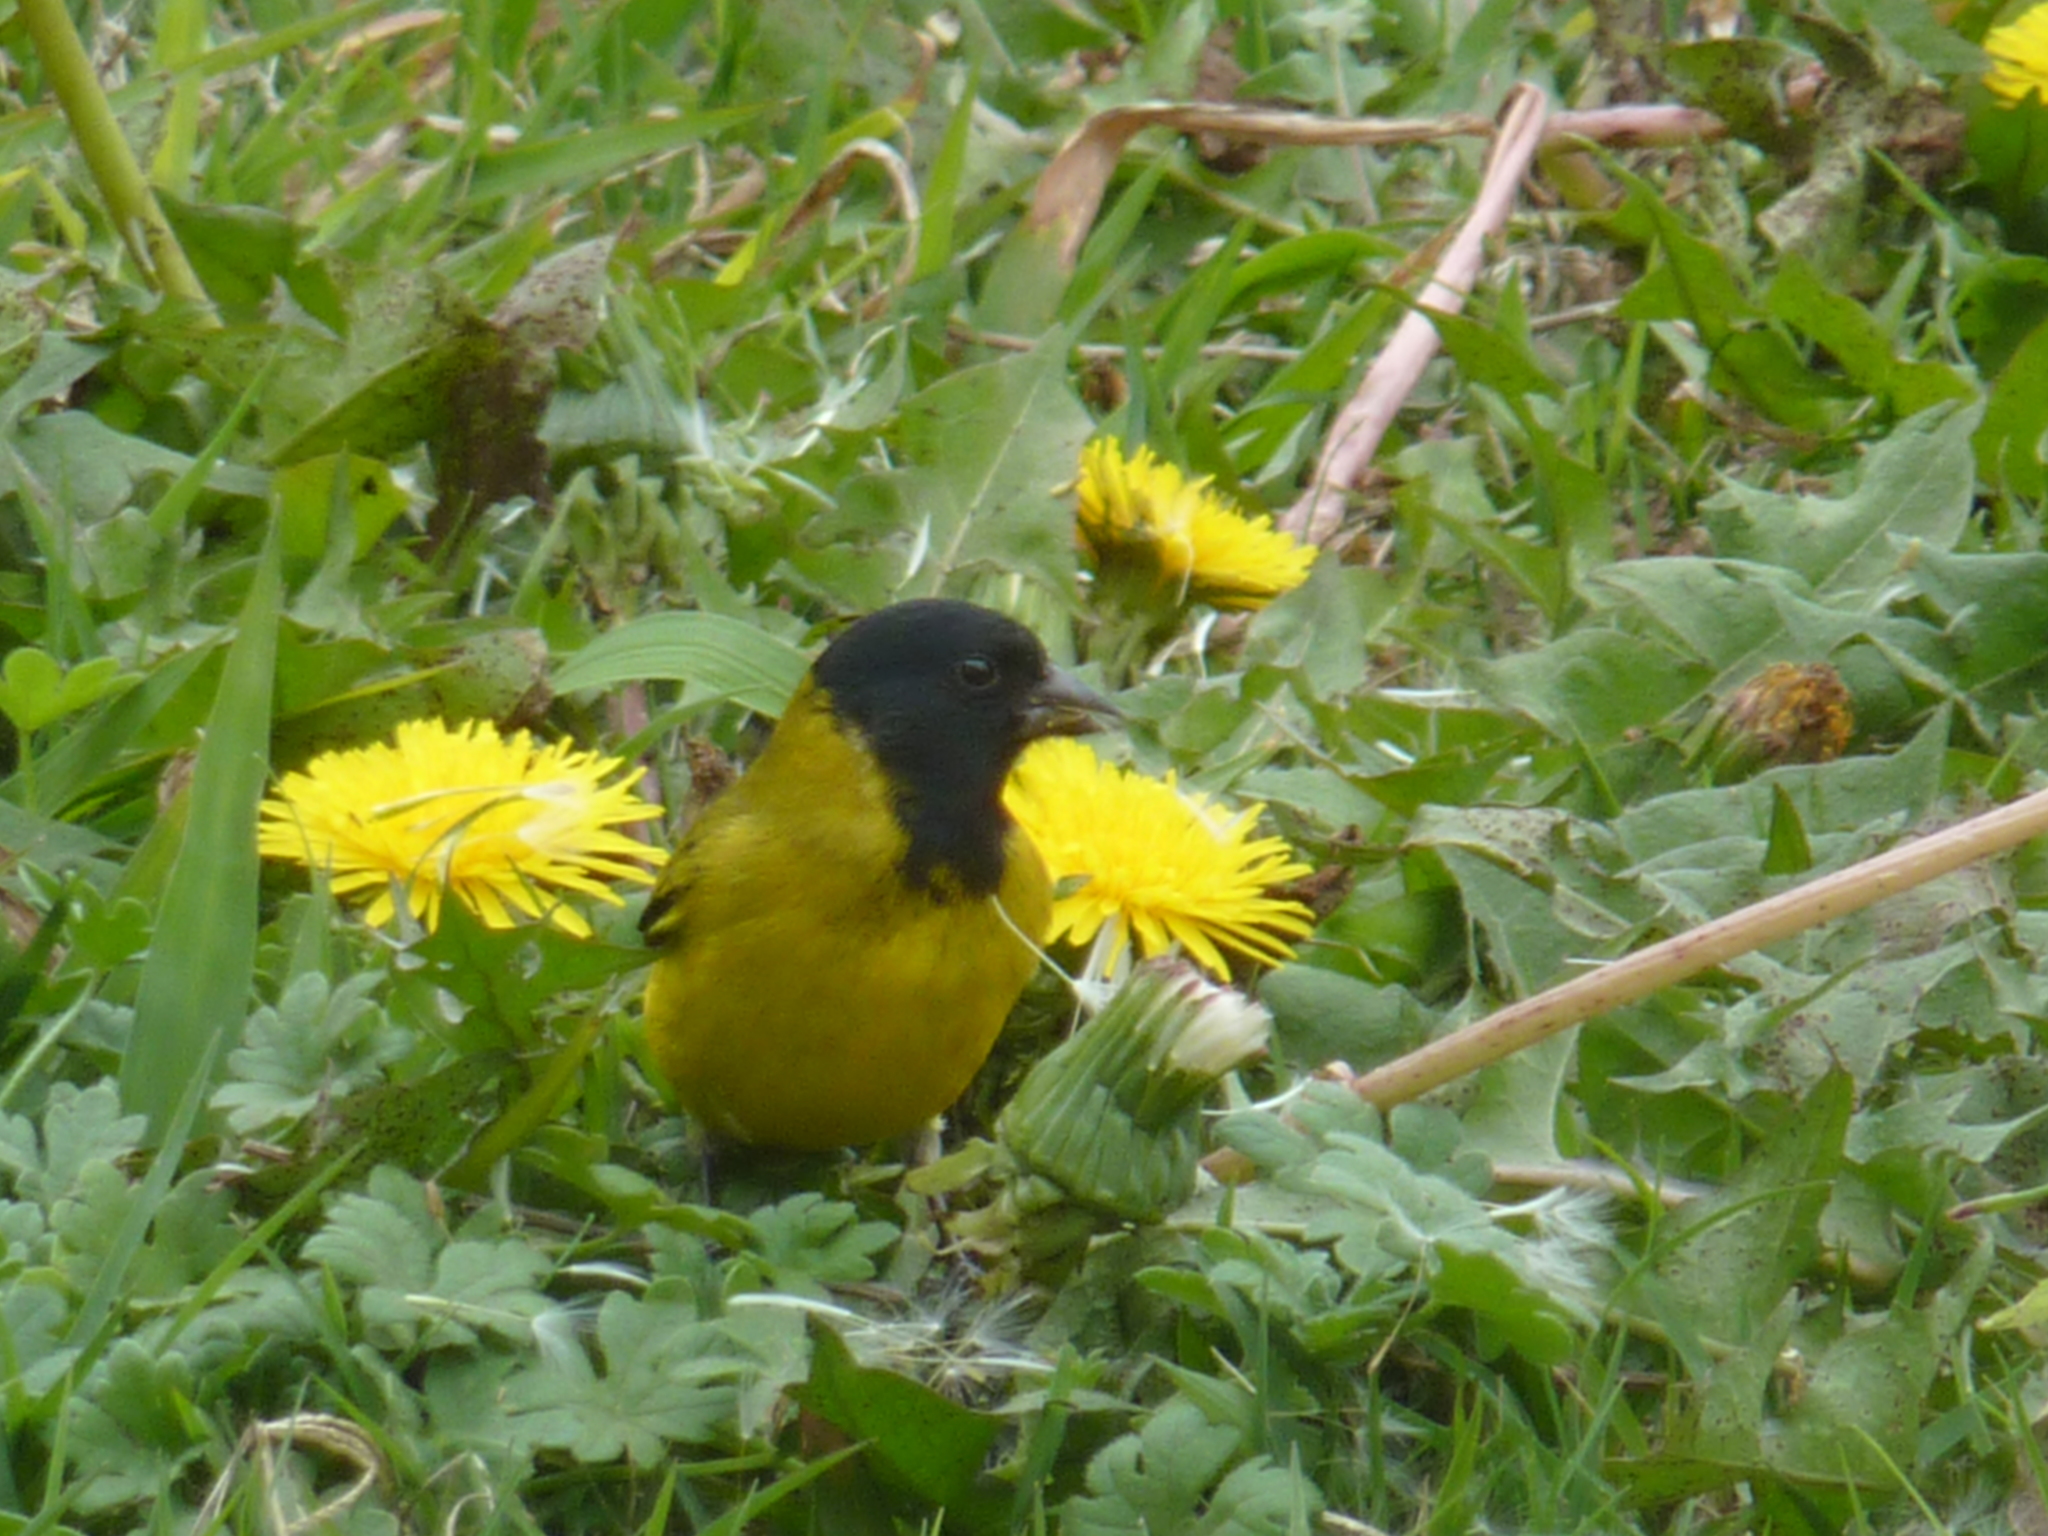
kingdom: Animalia
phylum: Chordata
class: Aves
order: Passeriformes
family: Fringillidae
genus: Spinus
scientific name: Spinus magellanicus
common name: Hooded siskin
